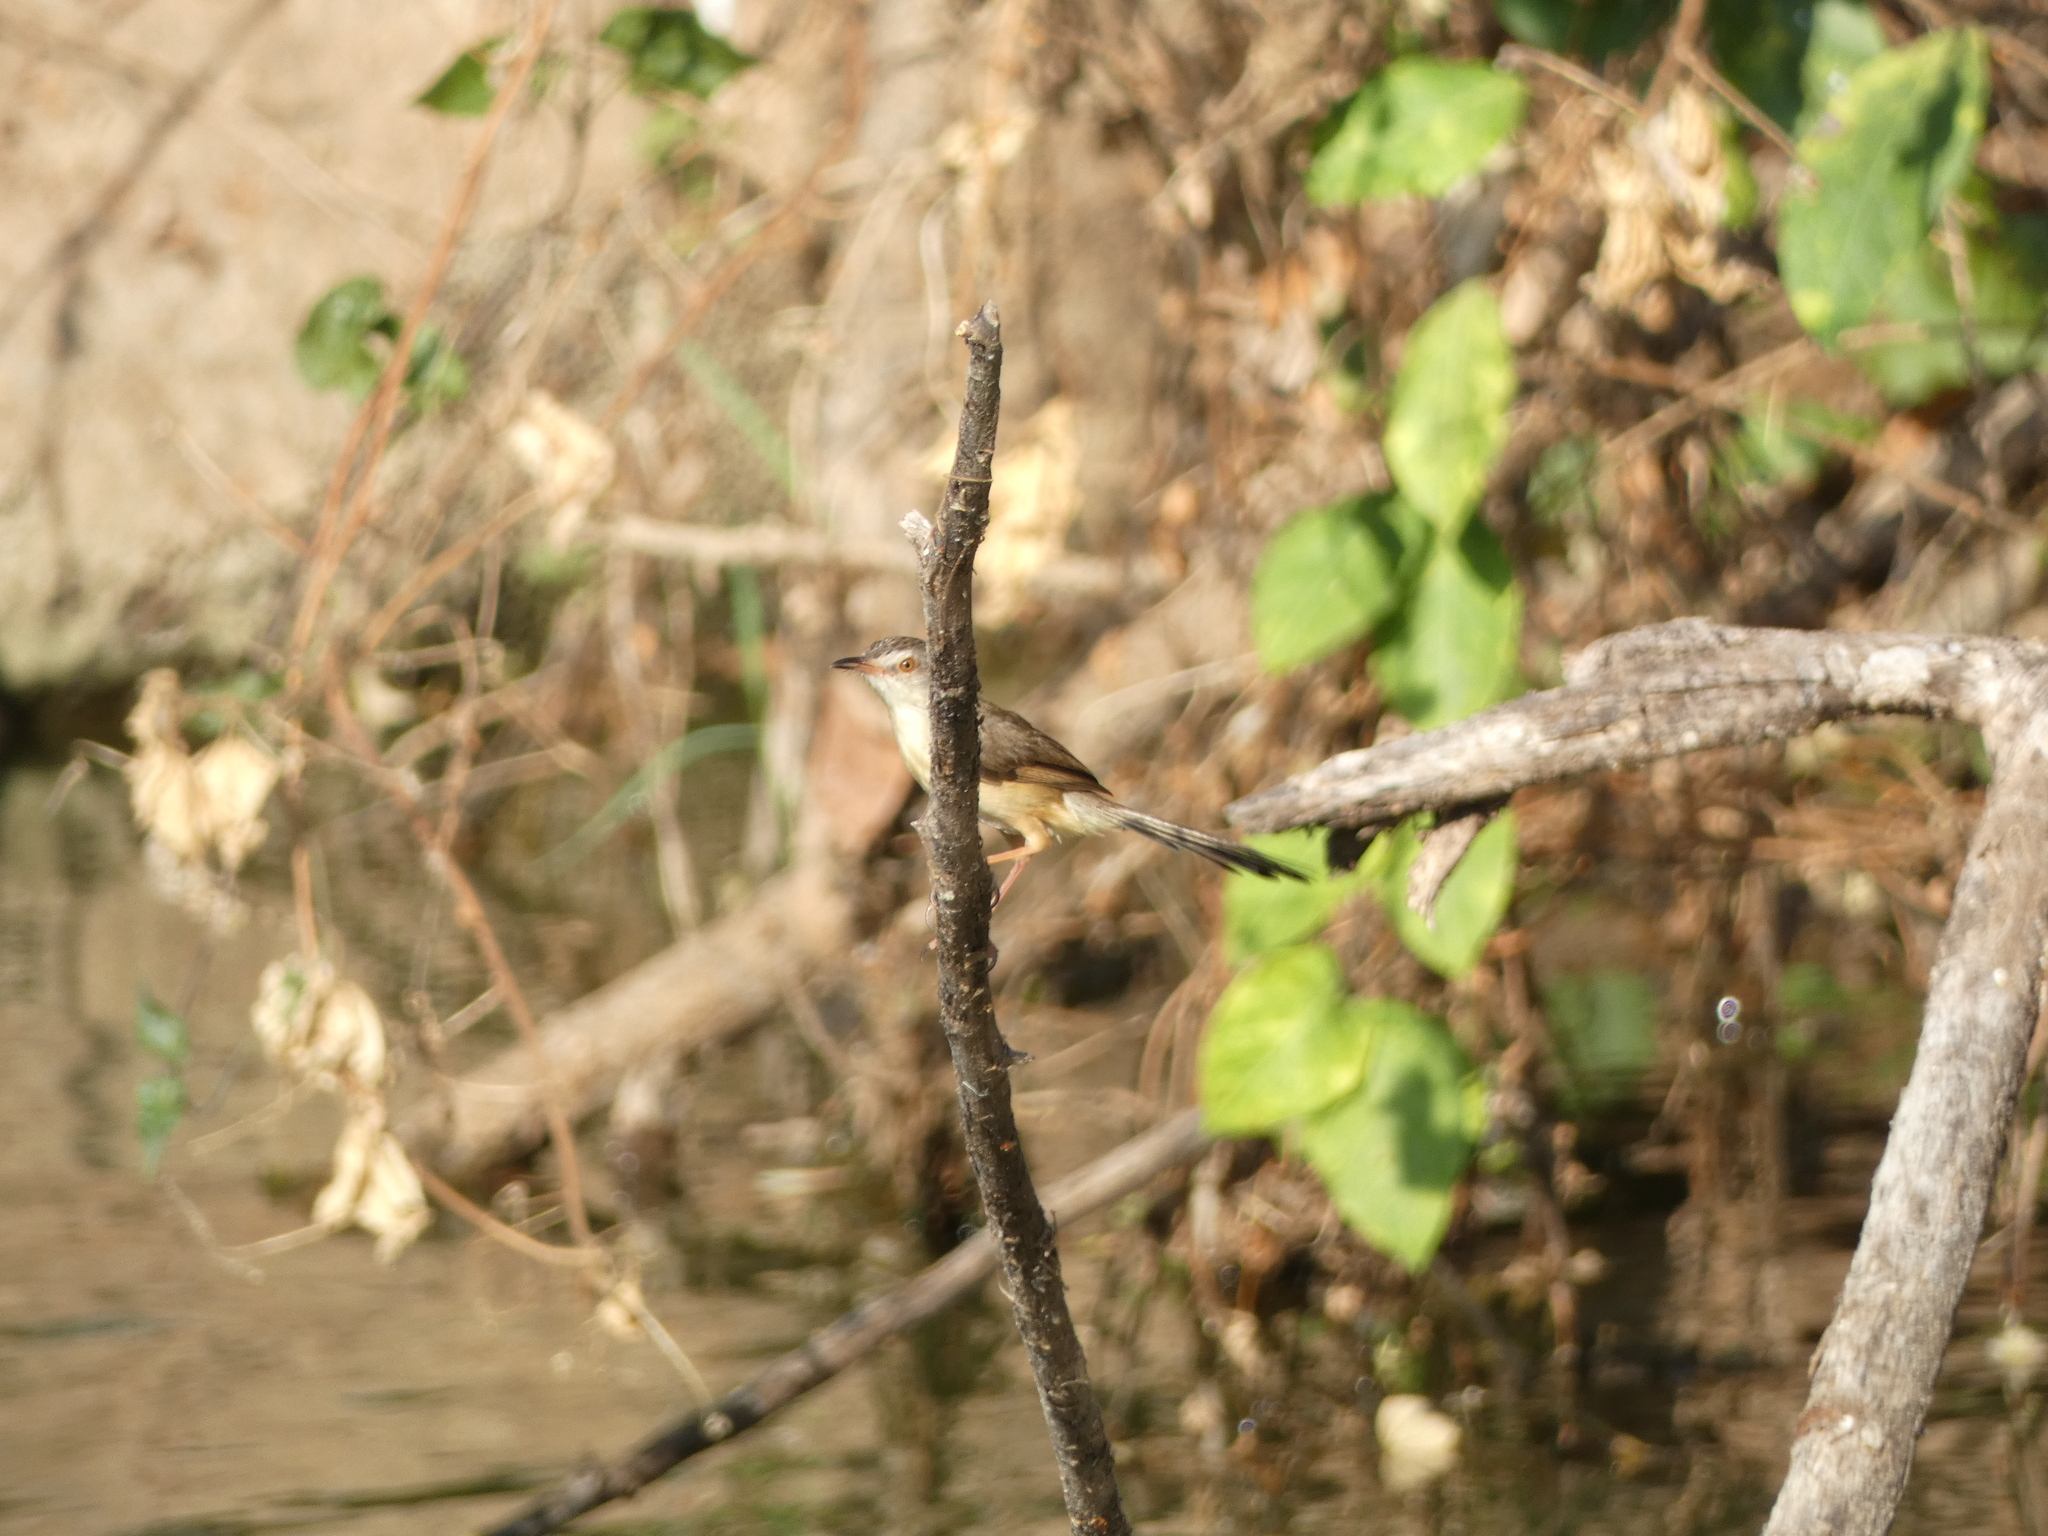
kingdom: Animalia
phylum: Chordata
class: Aves
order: Passeriformes
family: Cisticolidae
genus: Prinia
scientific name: Prinia inornata
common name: Plain prinia
